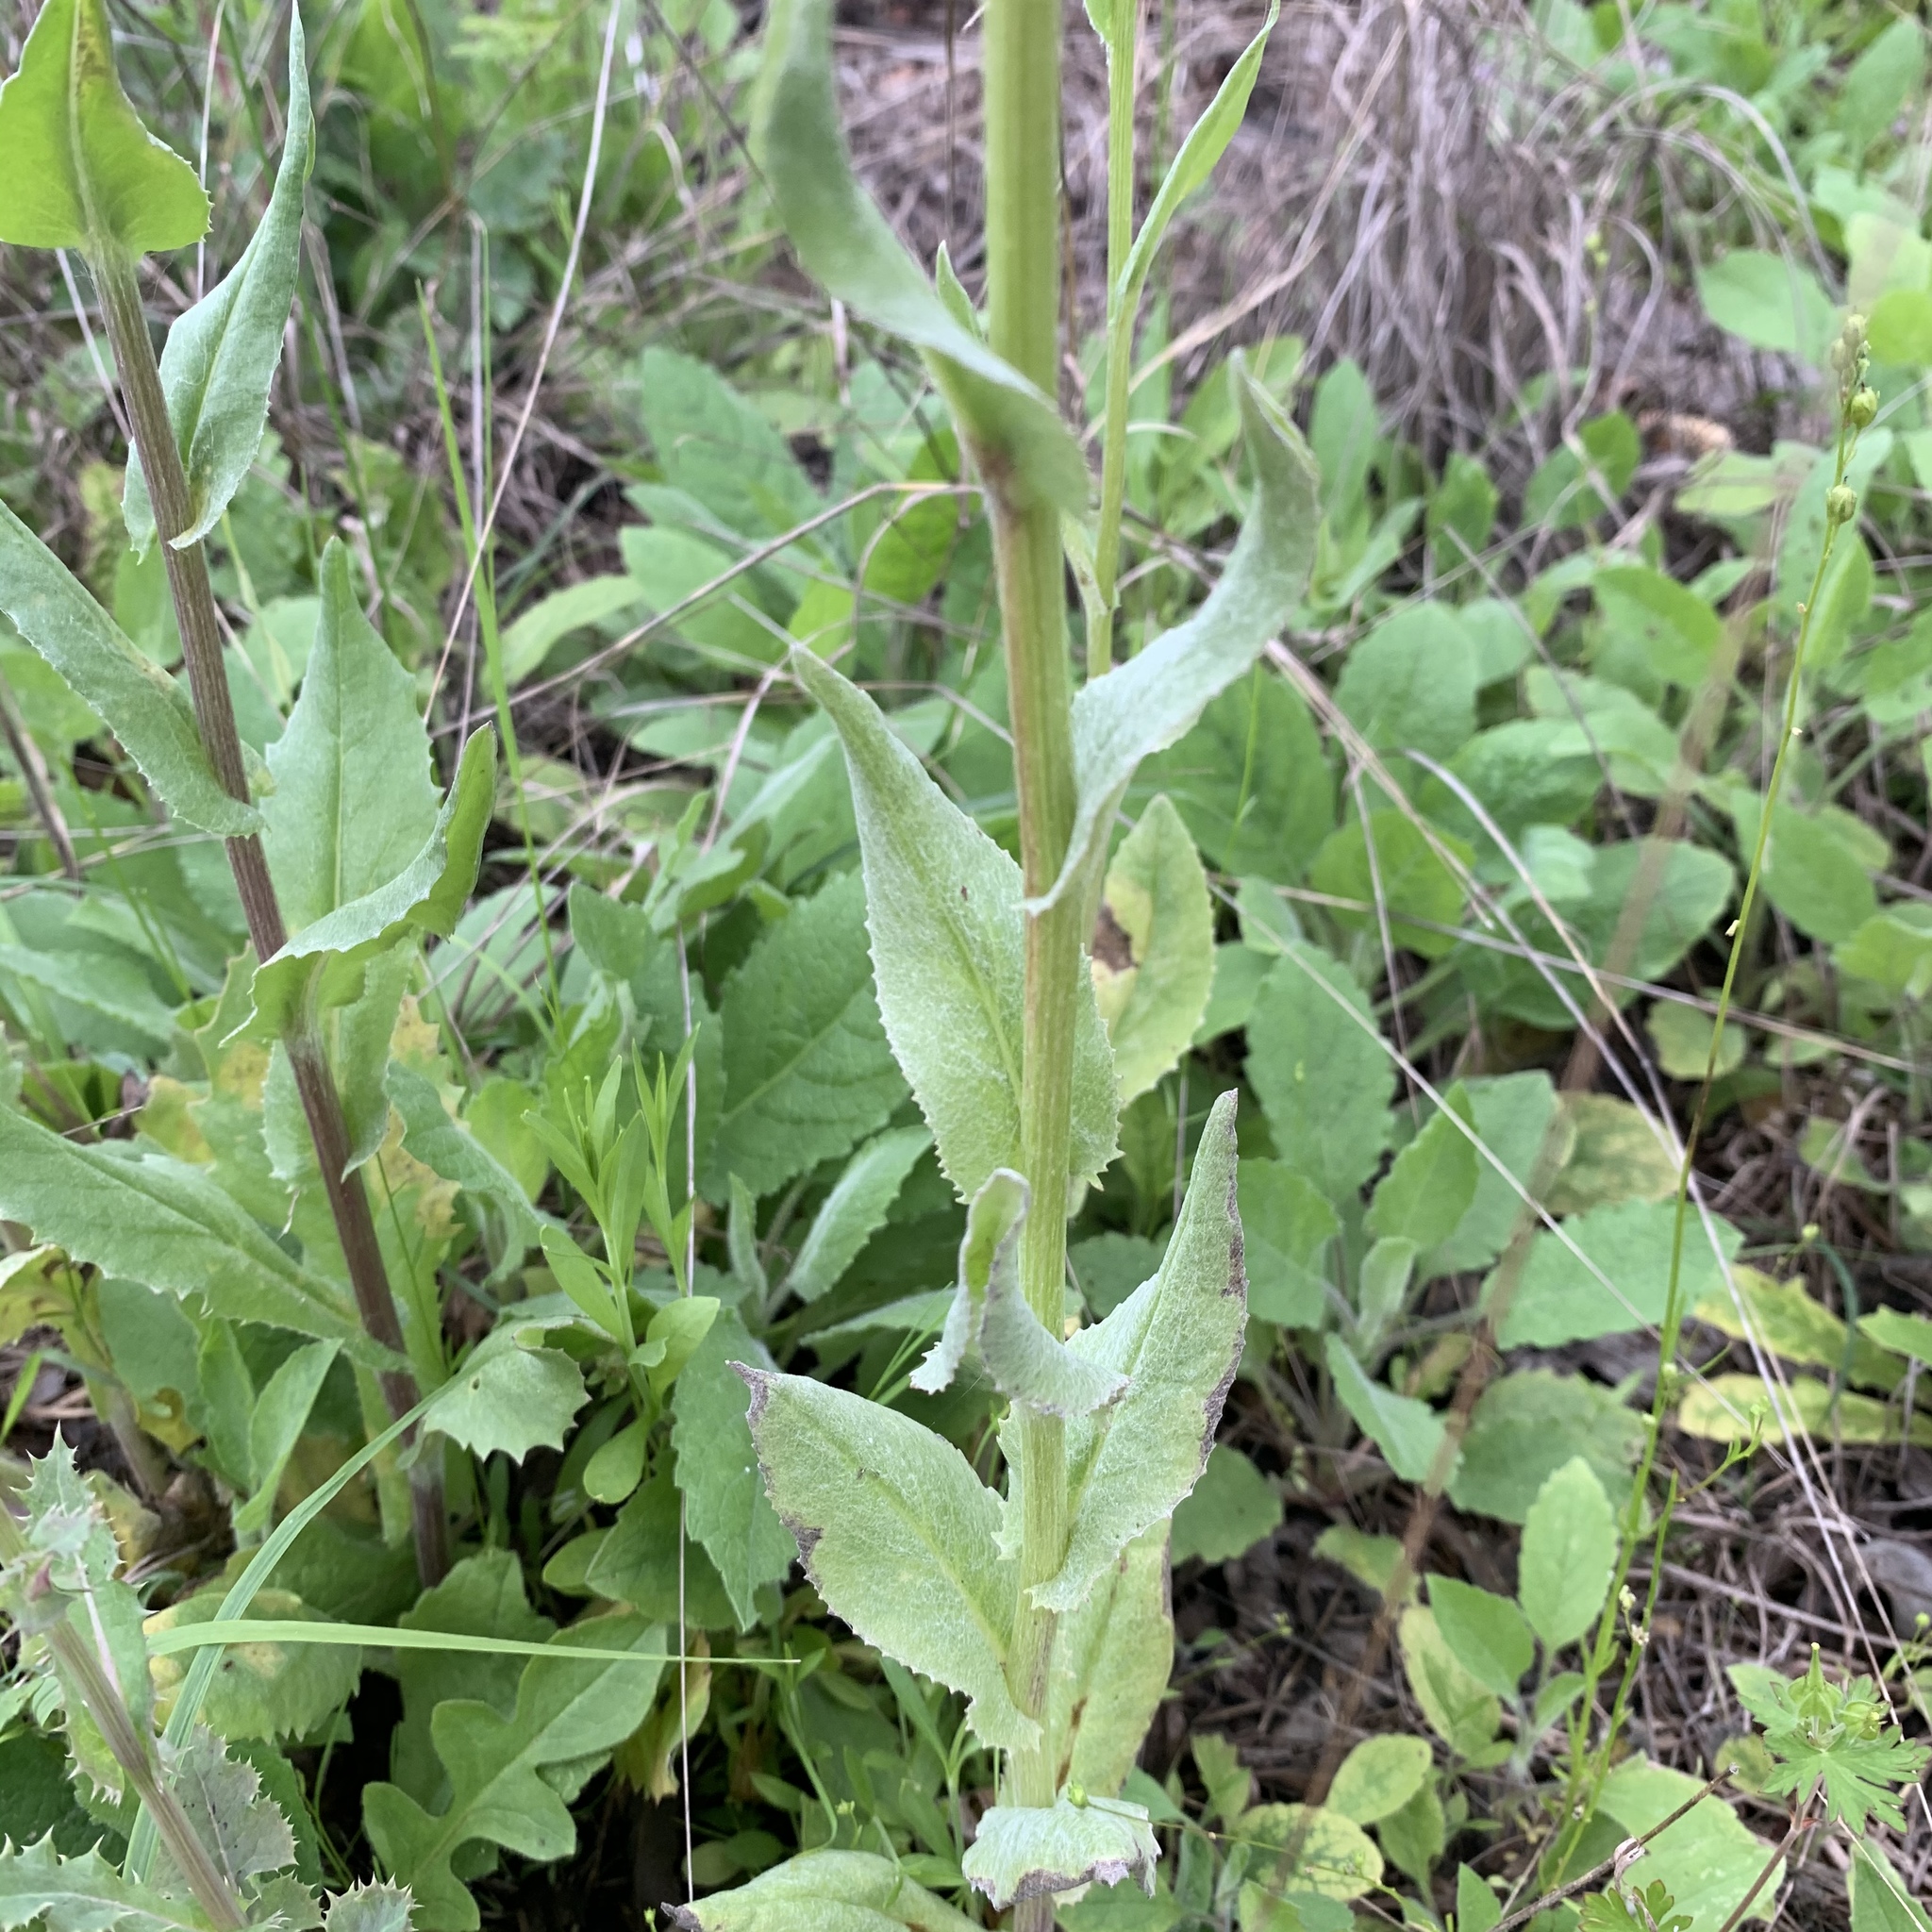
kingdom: Plantae
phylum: Tracheophyta
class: Magnoliopsida
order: Asterales
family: Asteraceae
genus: Senecio
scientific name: Senecio ampullaceus
